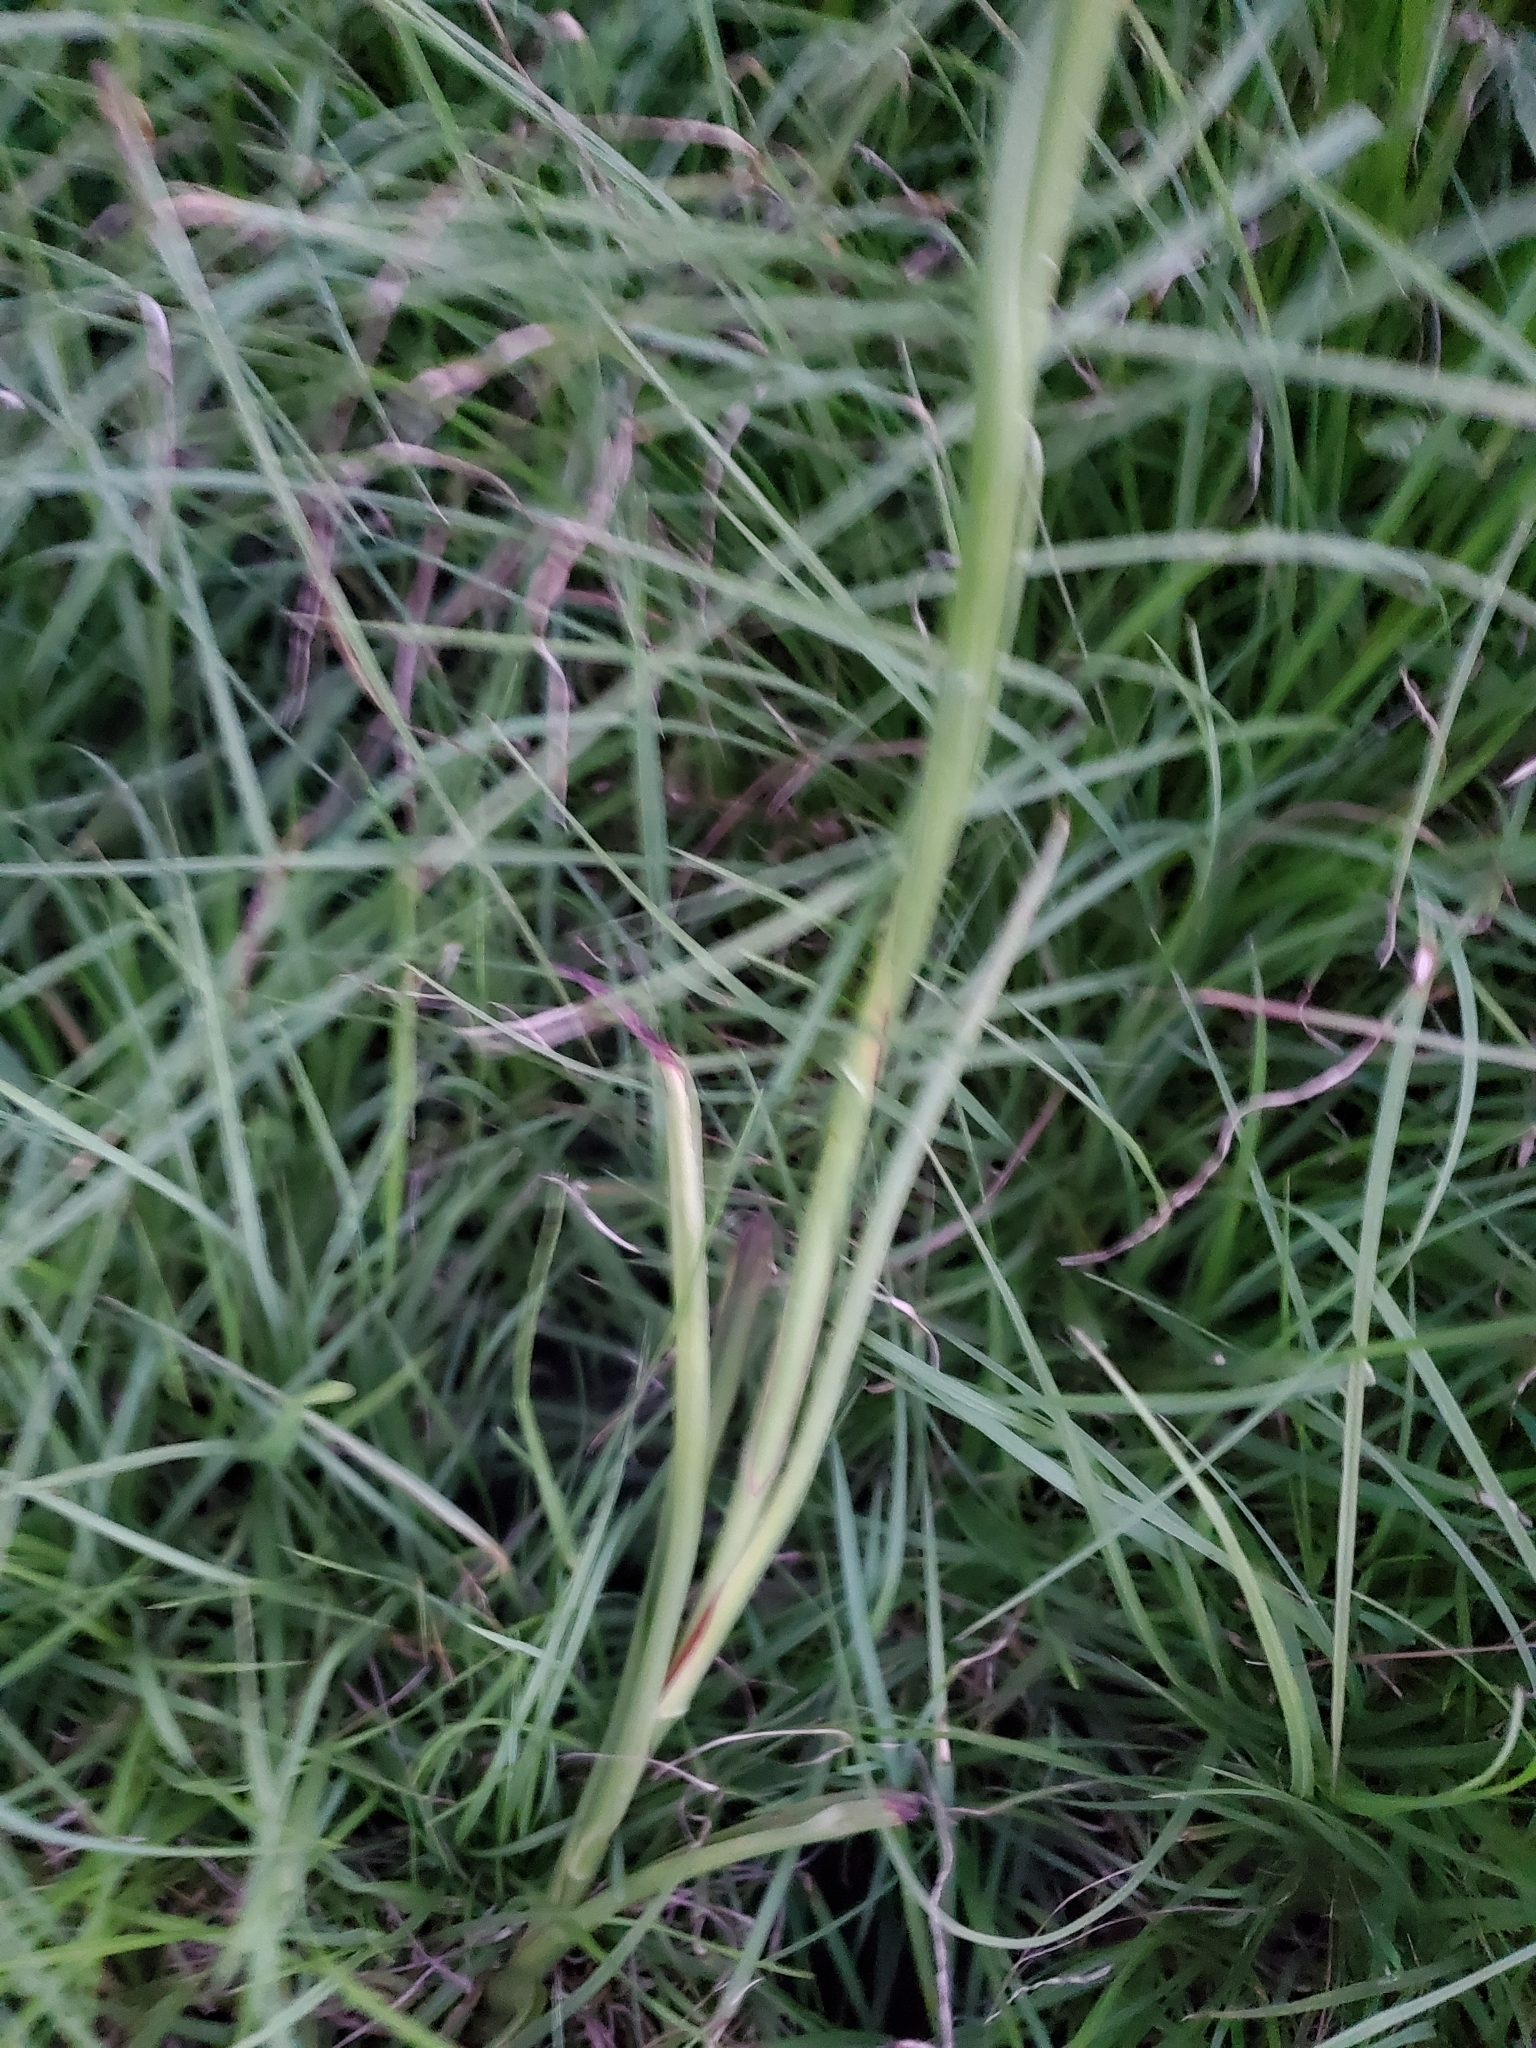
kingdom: Plantae
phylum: Tracheophyta
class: Liliopsida
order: Asparagales
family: Orchidaceae
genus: Spiranthes
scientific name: Spiranthes vernalis
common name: Spring ladies'-tresses
